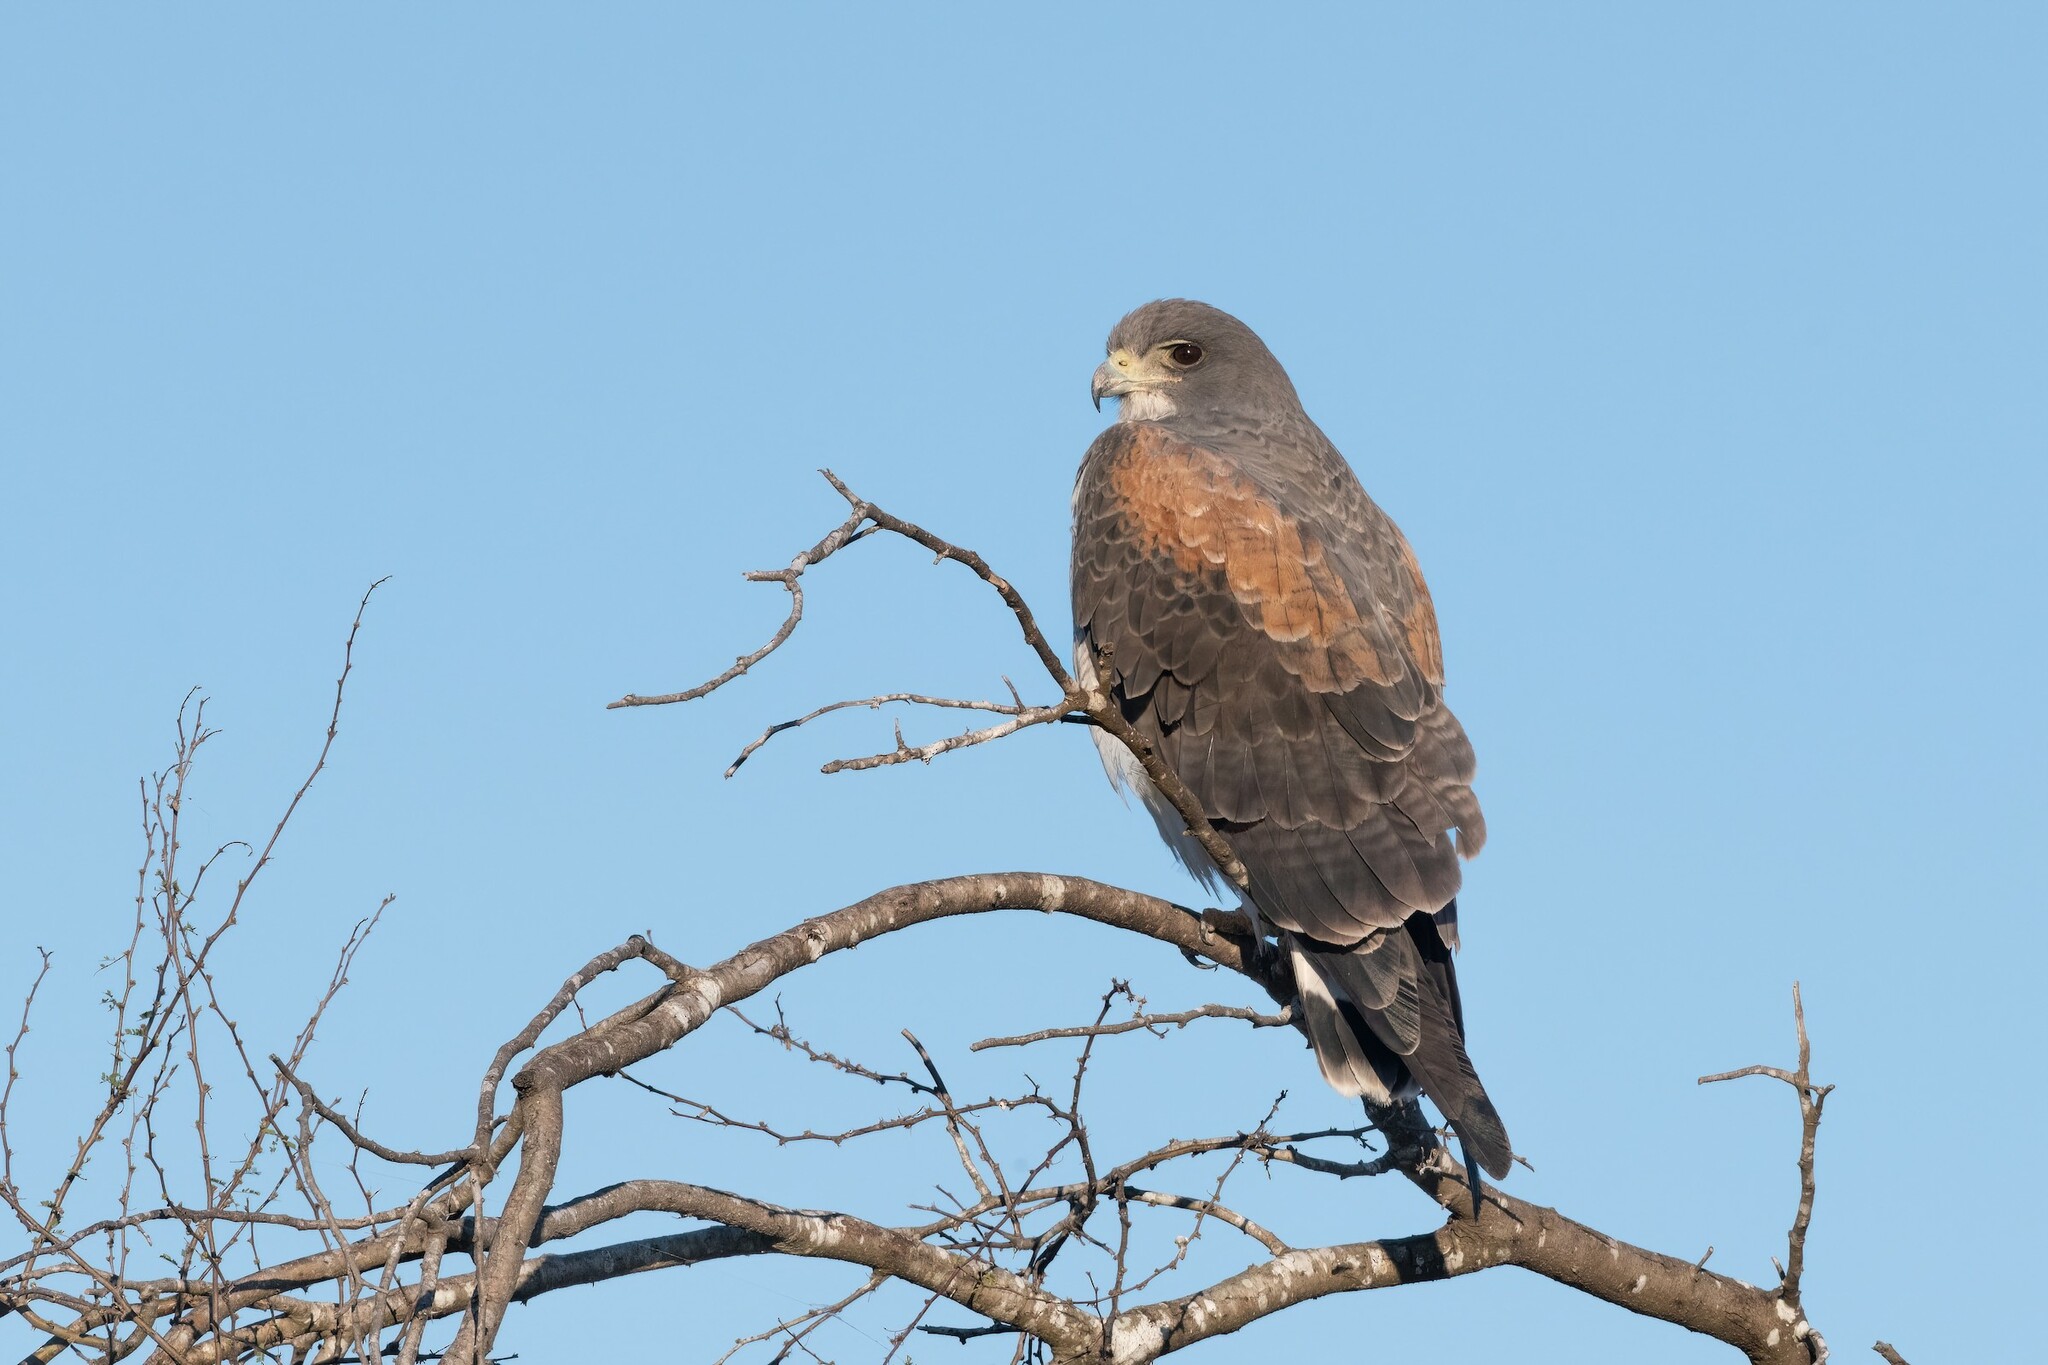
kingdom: Animalia
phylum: Chordata
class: Aves
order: Accipitriformes
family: Accipitridae
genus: Buteo
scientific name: Buteo albicaudatus
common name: White-tailed hawk
